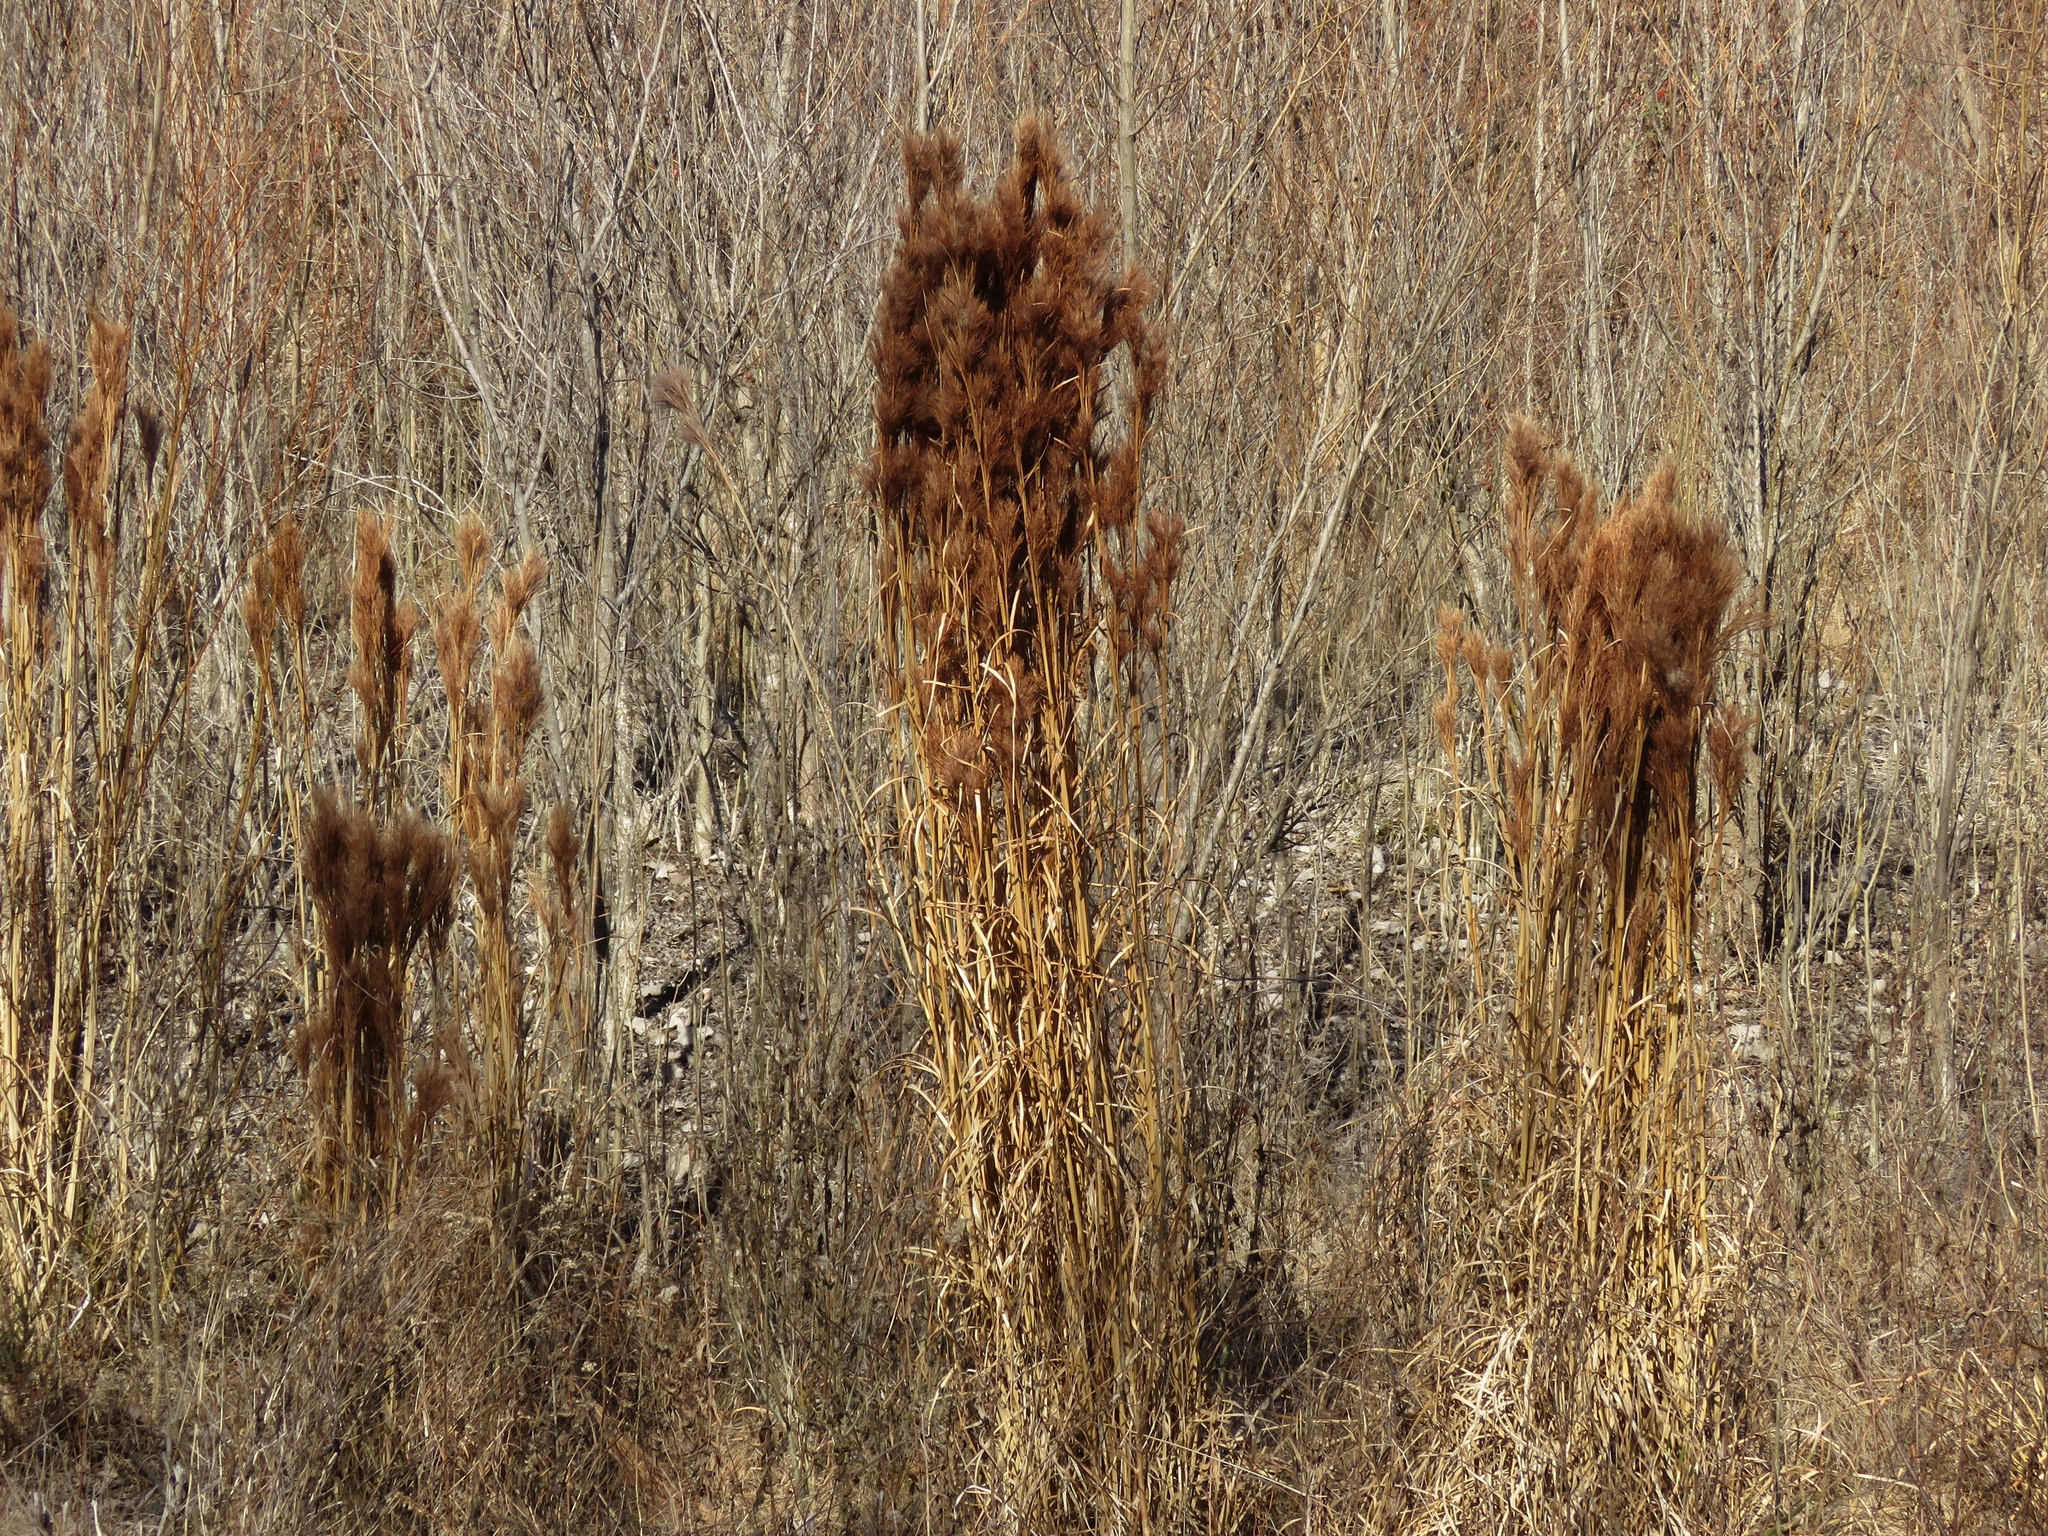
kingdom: Plantae
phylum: Tracheophyta
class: Liliopsida
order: Poales
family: Poaceae
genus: Andropogon
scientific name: Andropogon tenuispatheus
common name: Bushy bluestem
